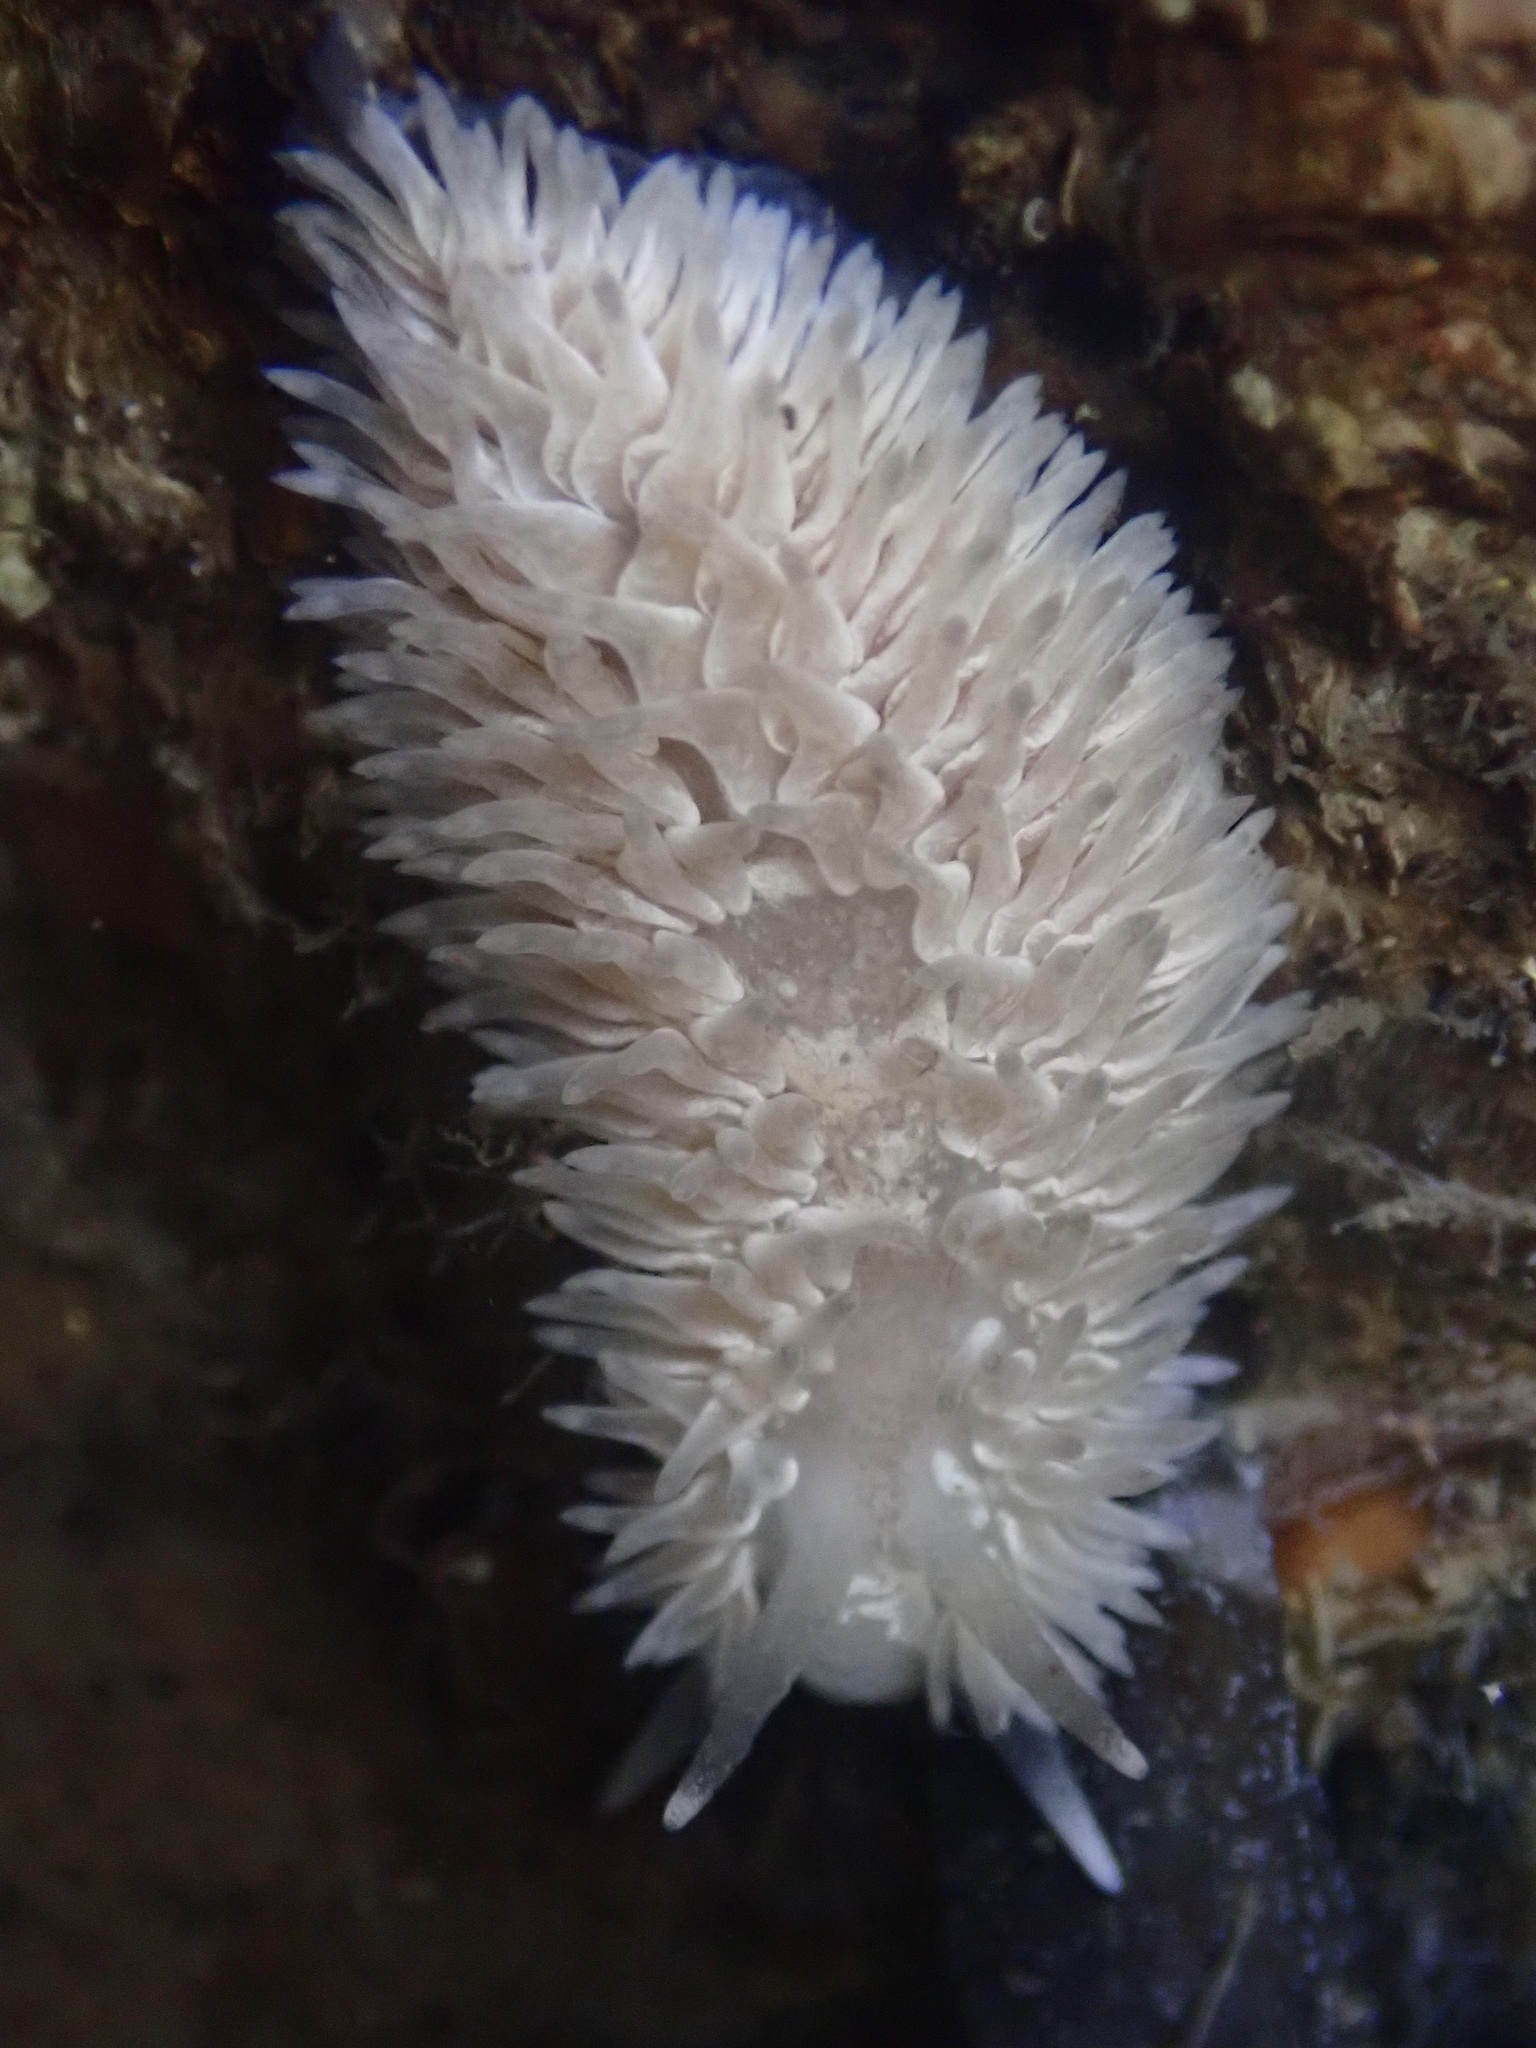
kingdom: Animalia
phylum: Mollusca
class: Gastropoda
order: Nudibranchia
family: Aeolidiidae
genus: Aeolidia
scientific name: Aeolidia loui
